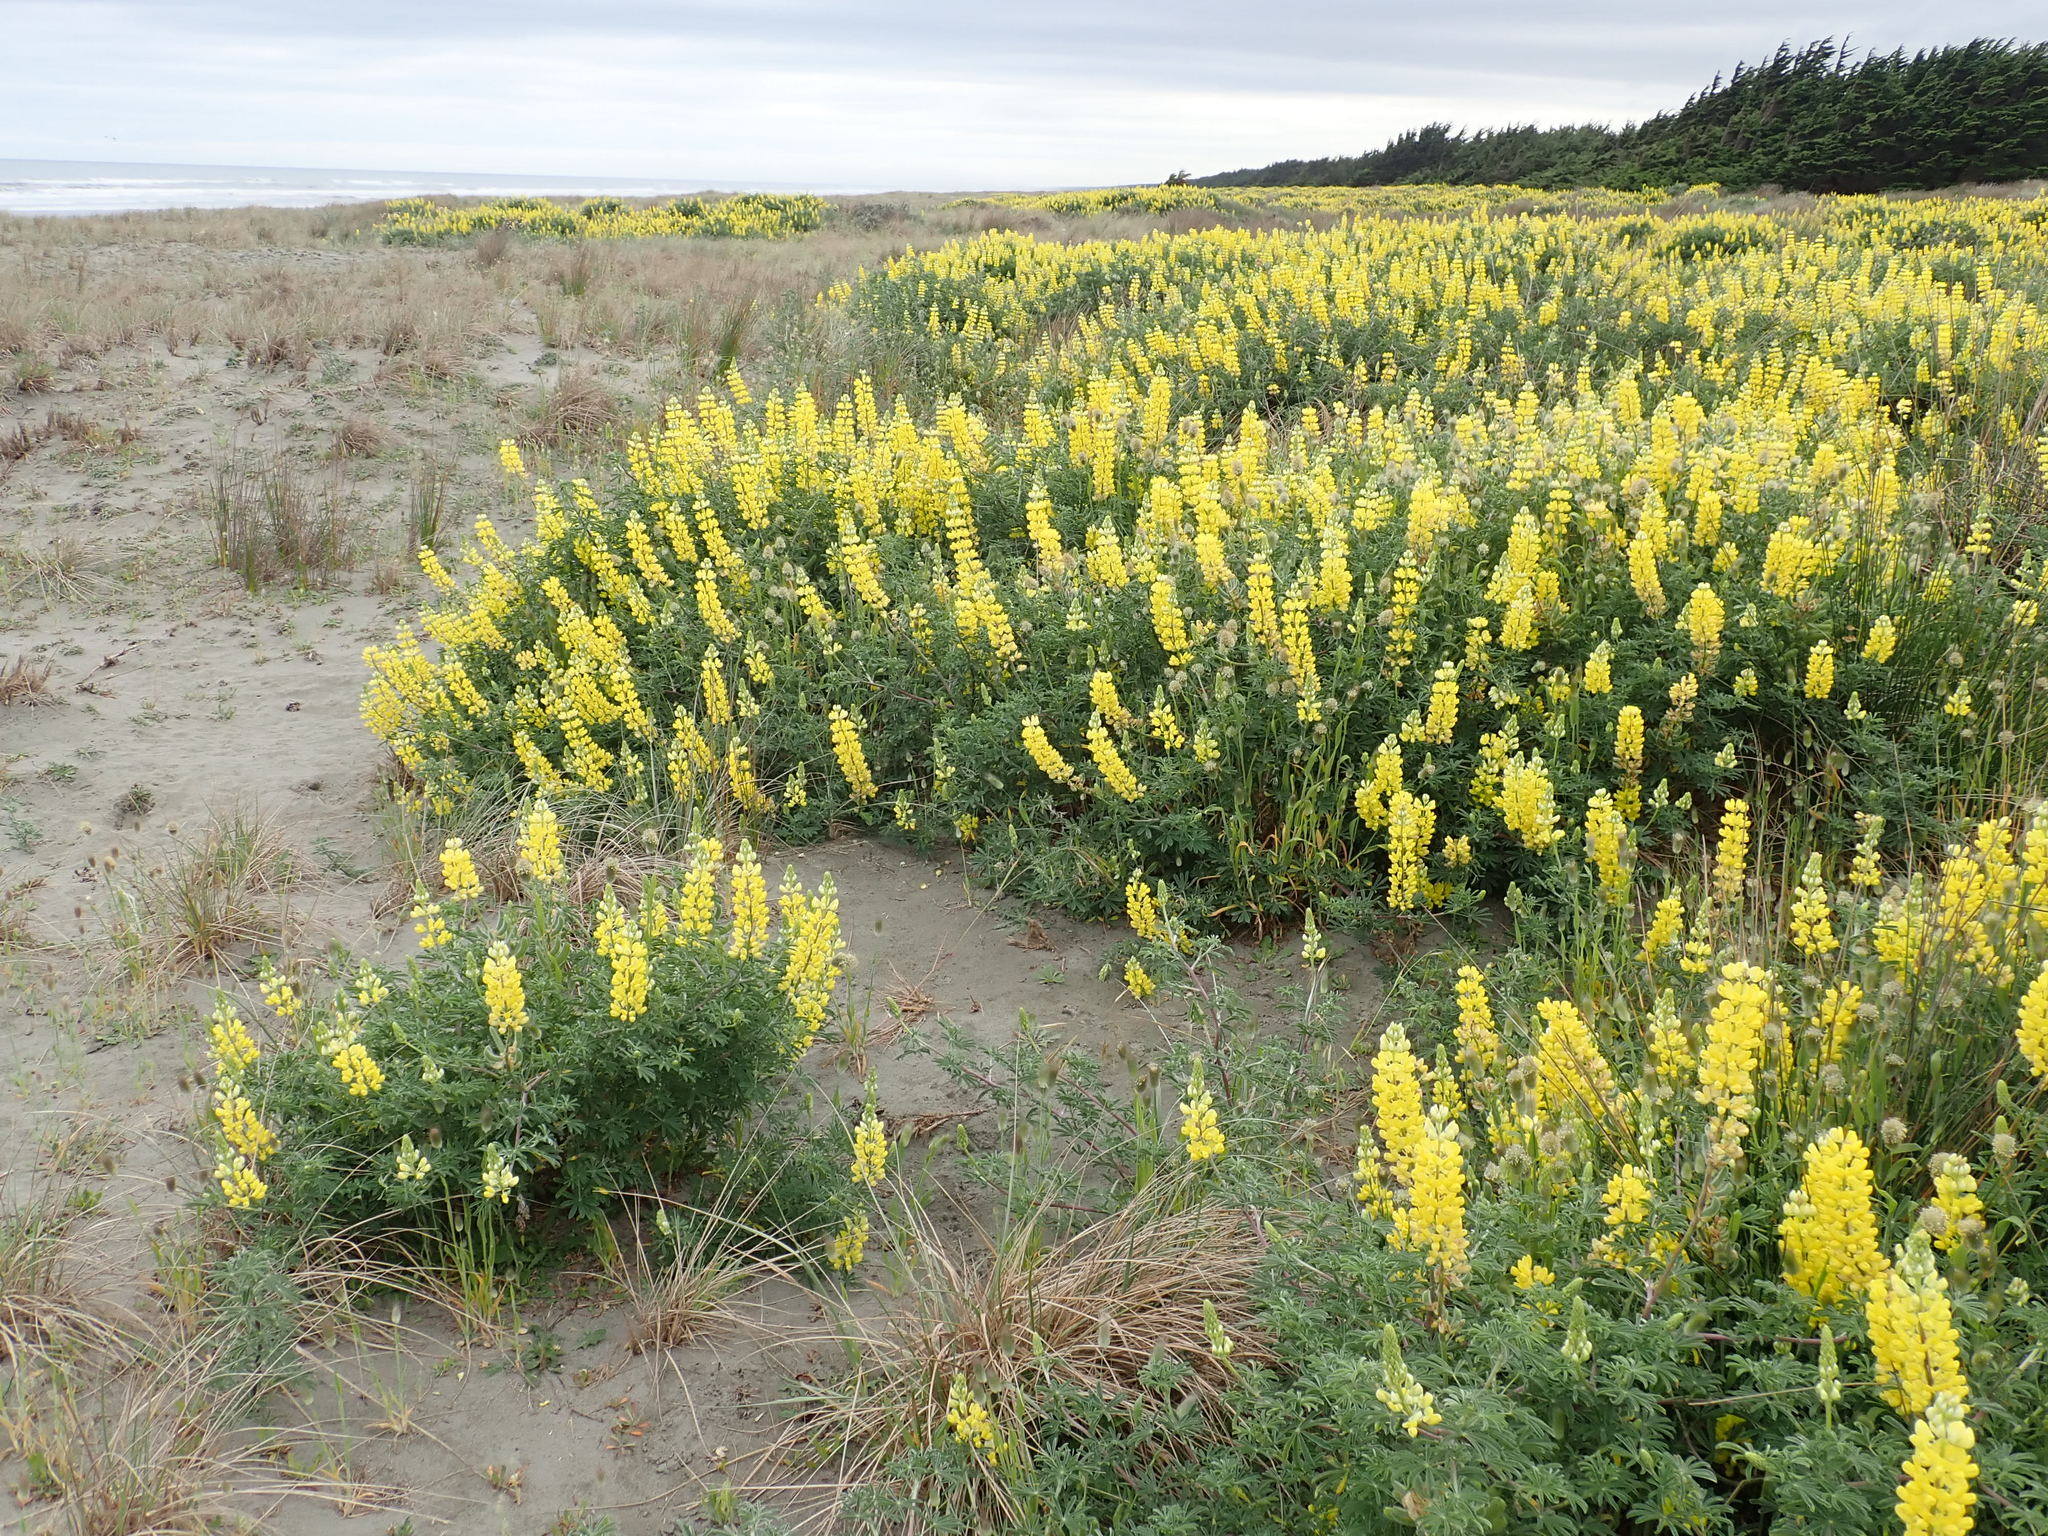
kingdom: Plantae
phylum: Tracheophyta
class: Magnoliopsida
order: Fabales
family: Fabaceae
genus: Lupinus
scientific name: Lupinus arboreus
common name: Yellow bush lupine
